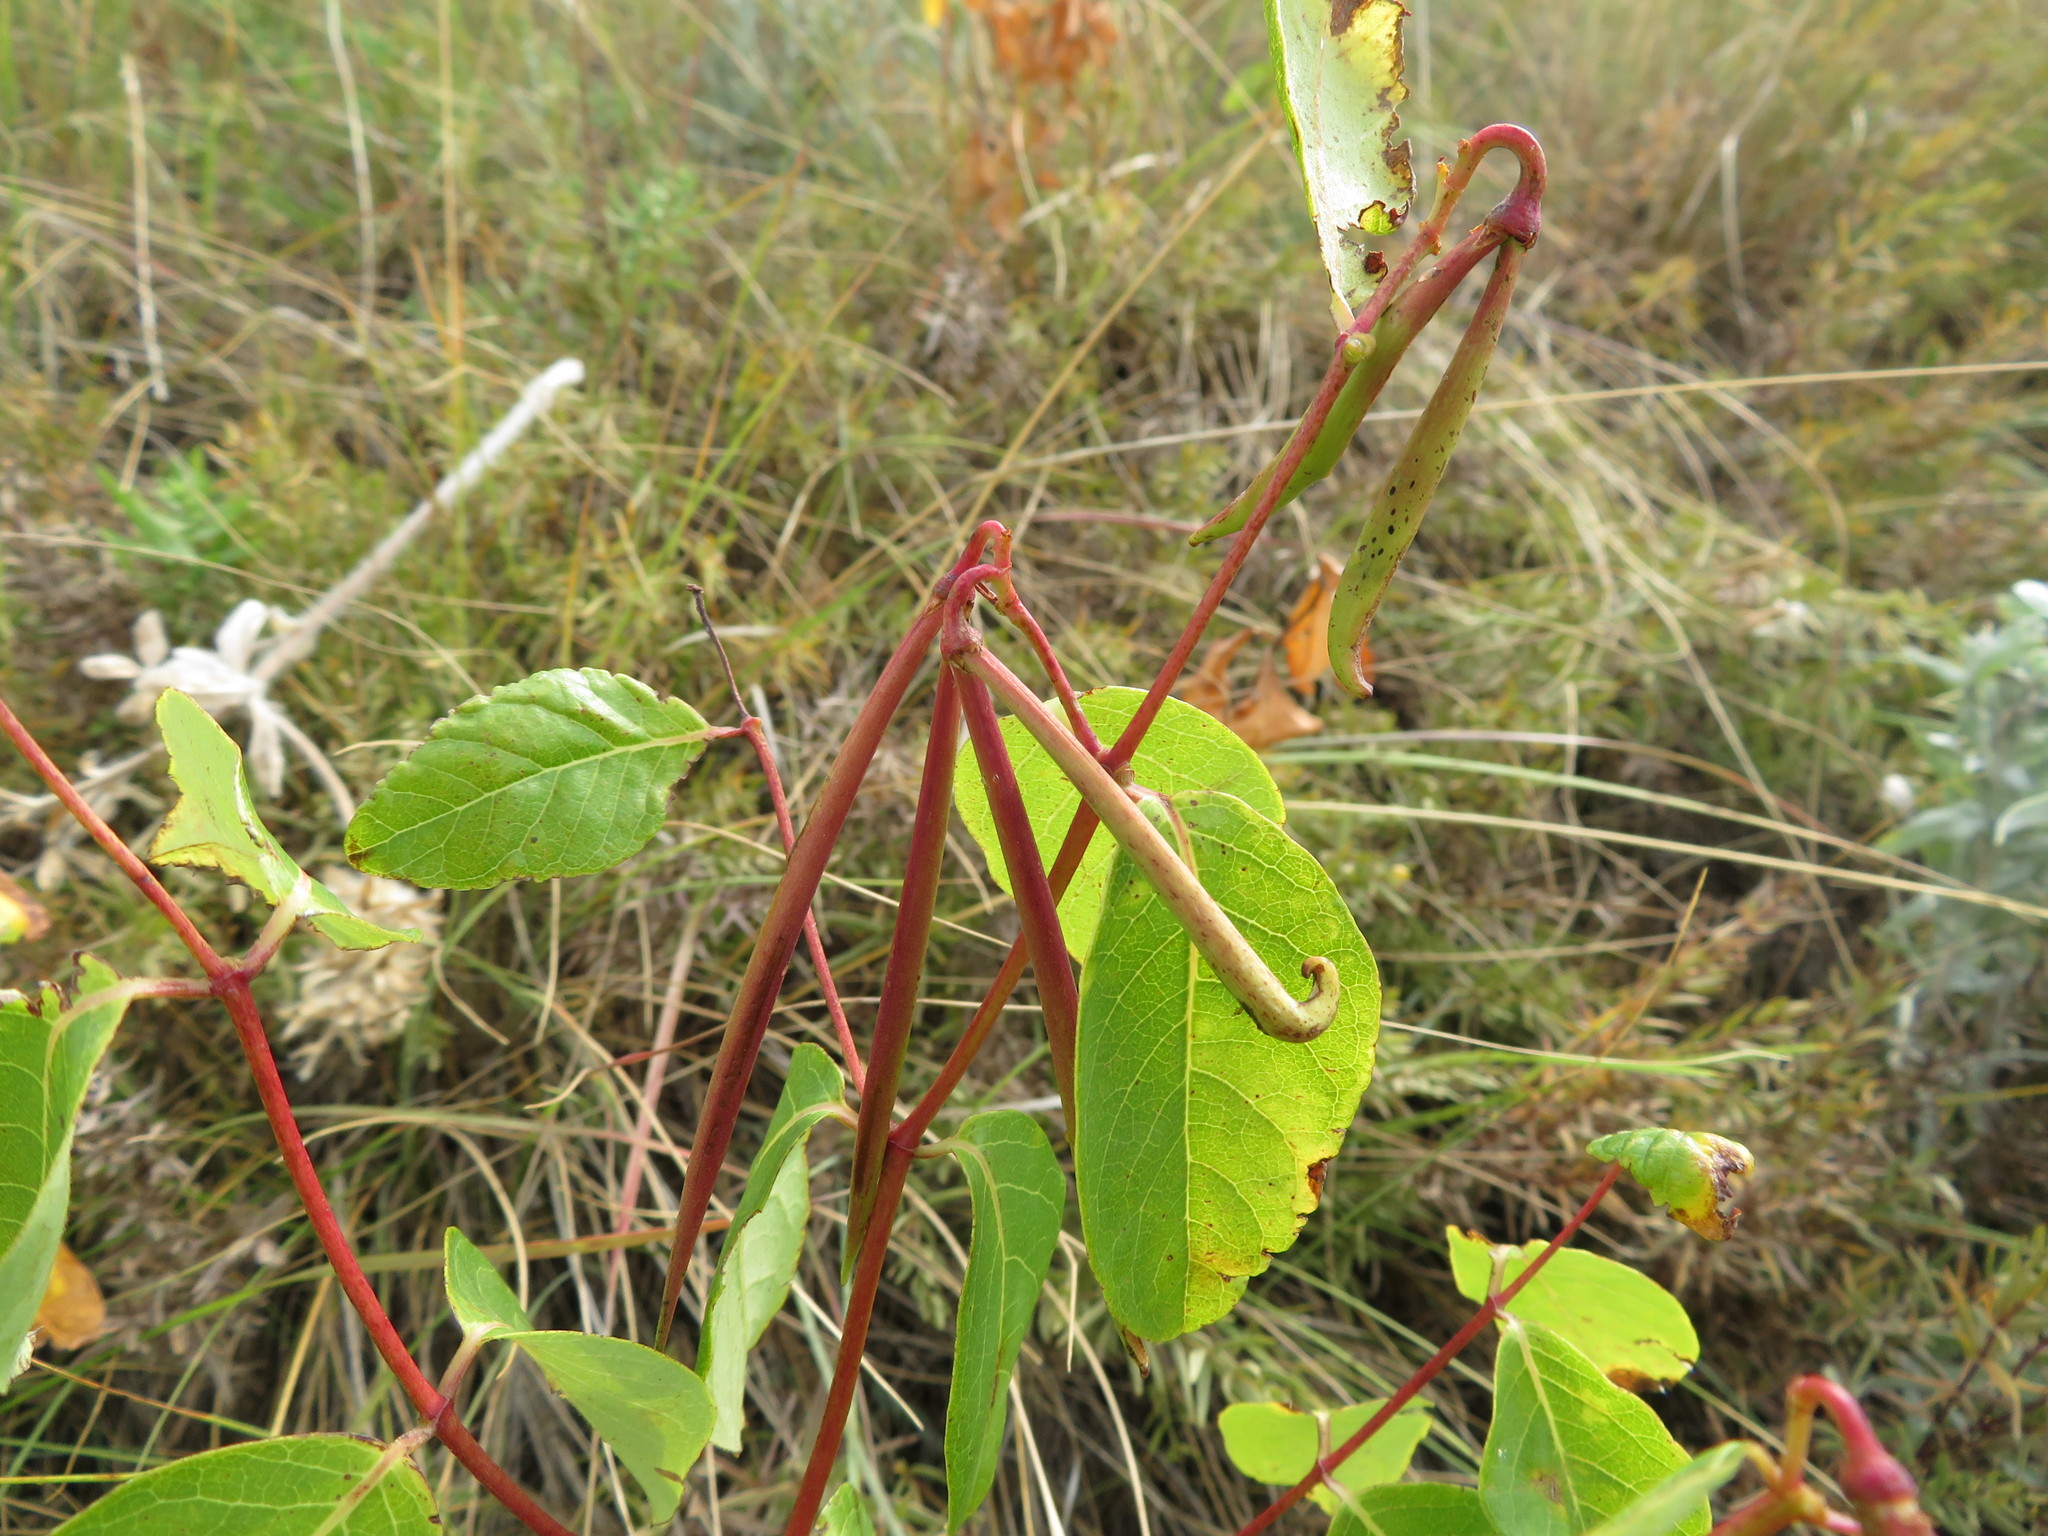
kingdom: Plantae
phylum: Tracheophyta
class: Magnoliopsida
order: Gentianales
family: Apocynaceae
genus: Apocynum
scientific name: Apocynum androsaemifolium
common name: Spreading dogbane
